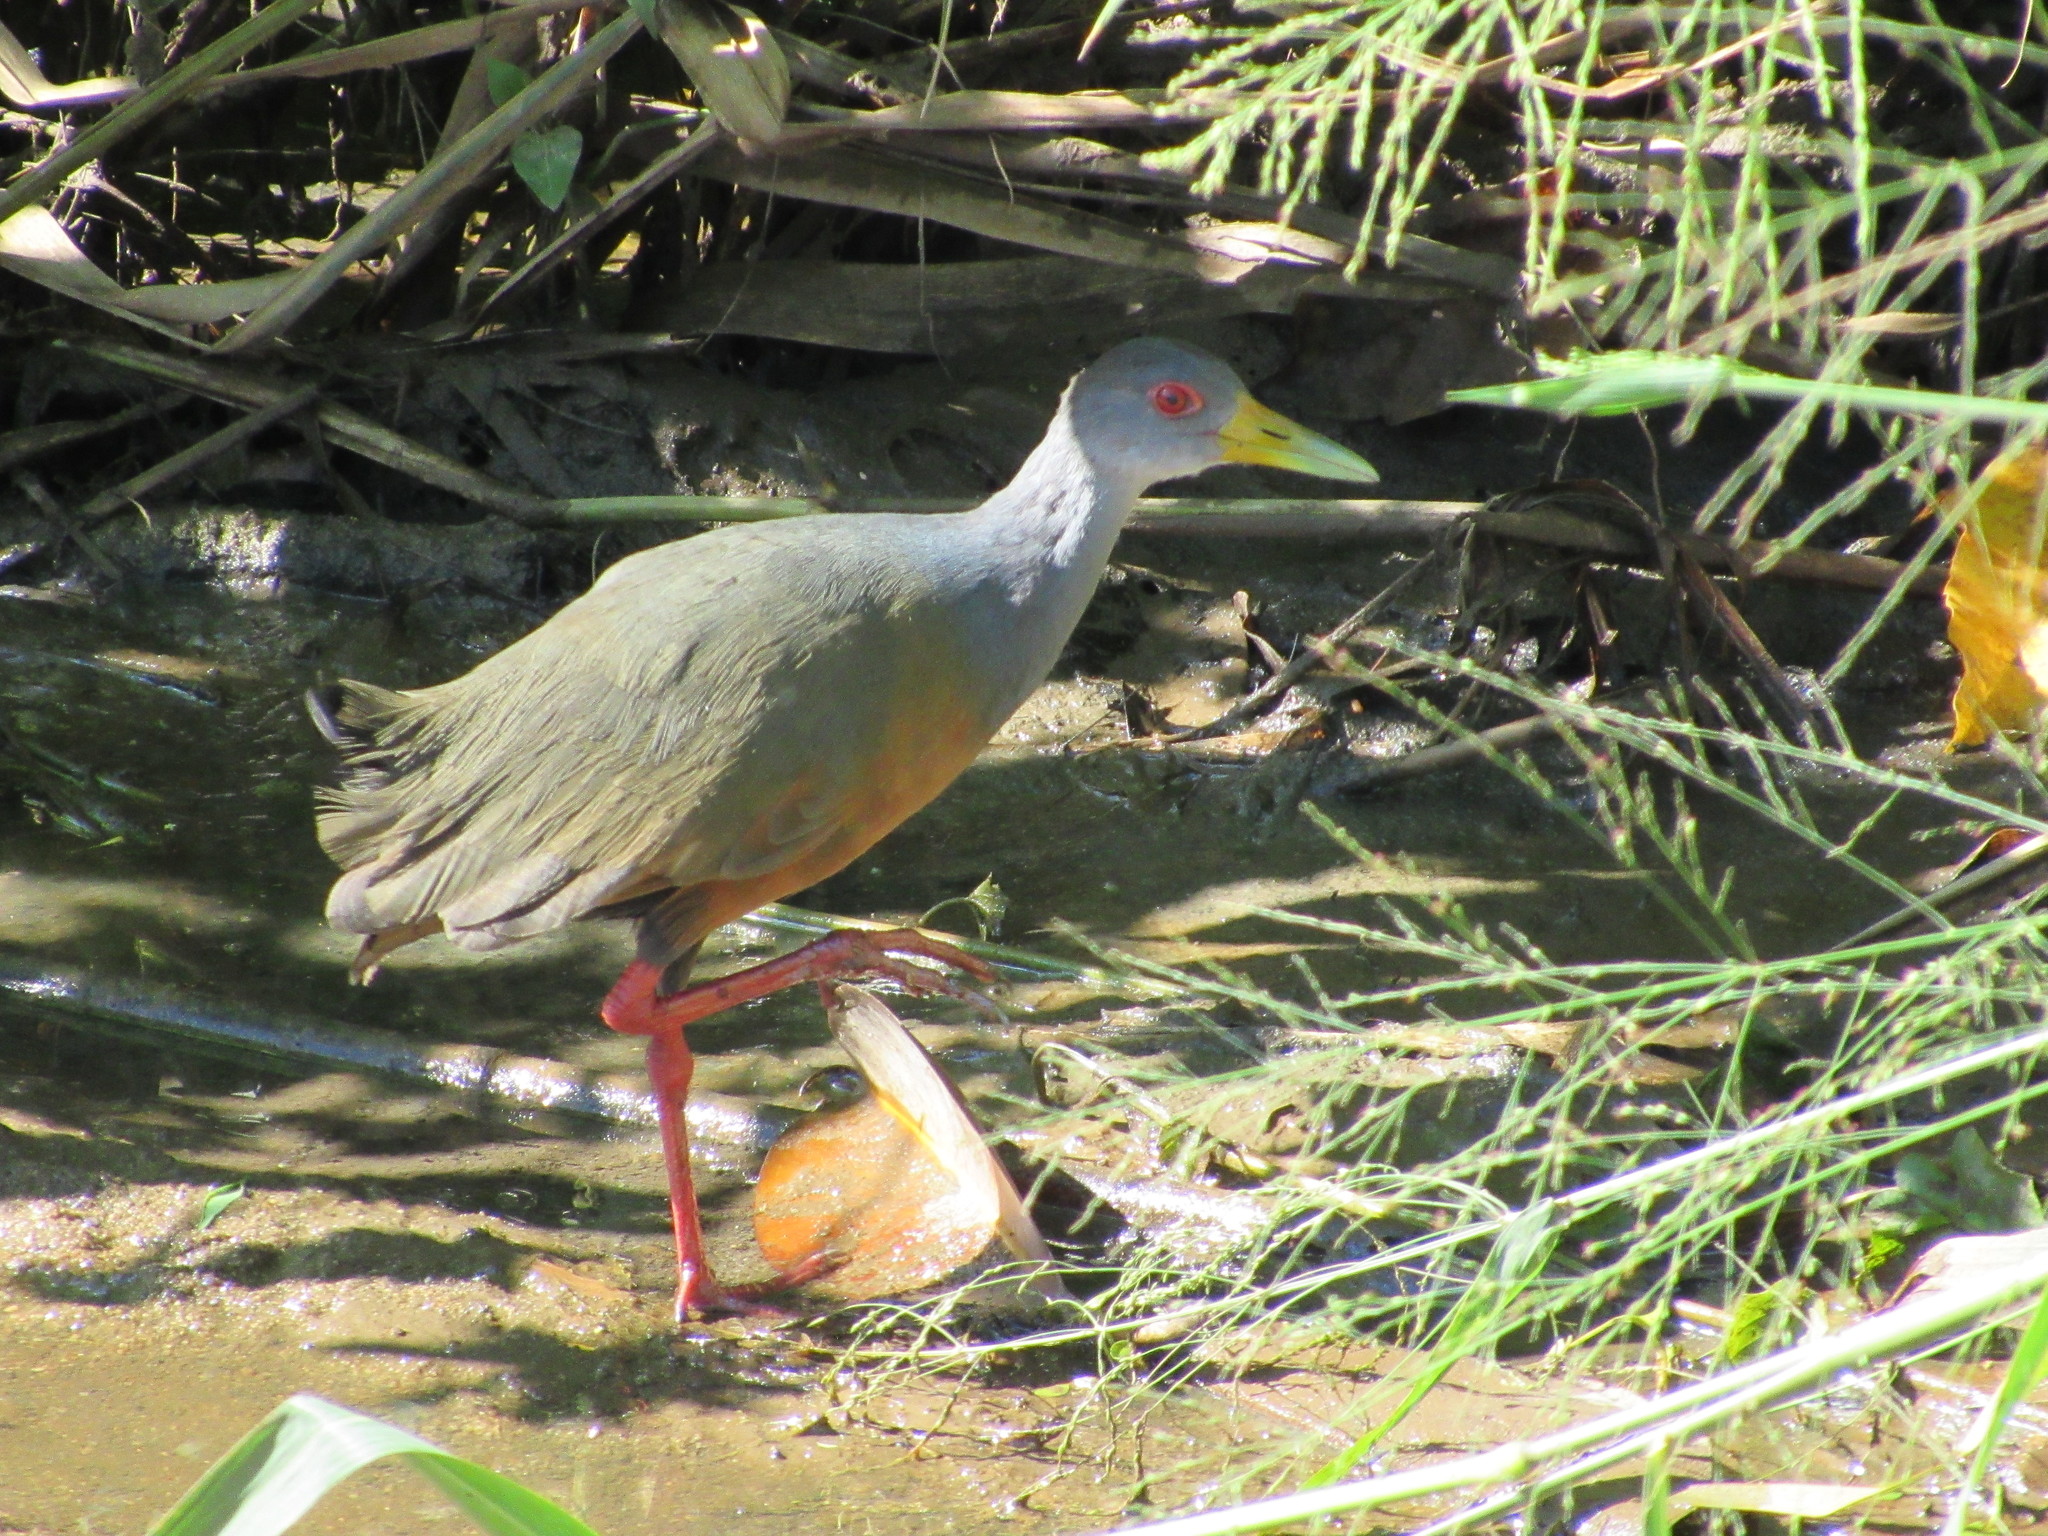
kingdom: Animalia
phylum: Chordata
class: Aves
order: Gruiformes
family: Rallidae
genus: Aramides
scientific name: Aramides cajanea
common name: Gray-necked wood-rail
